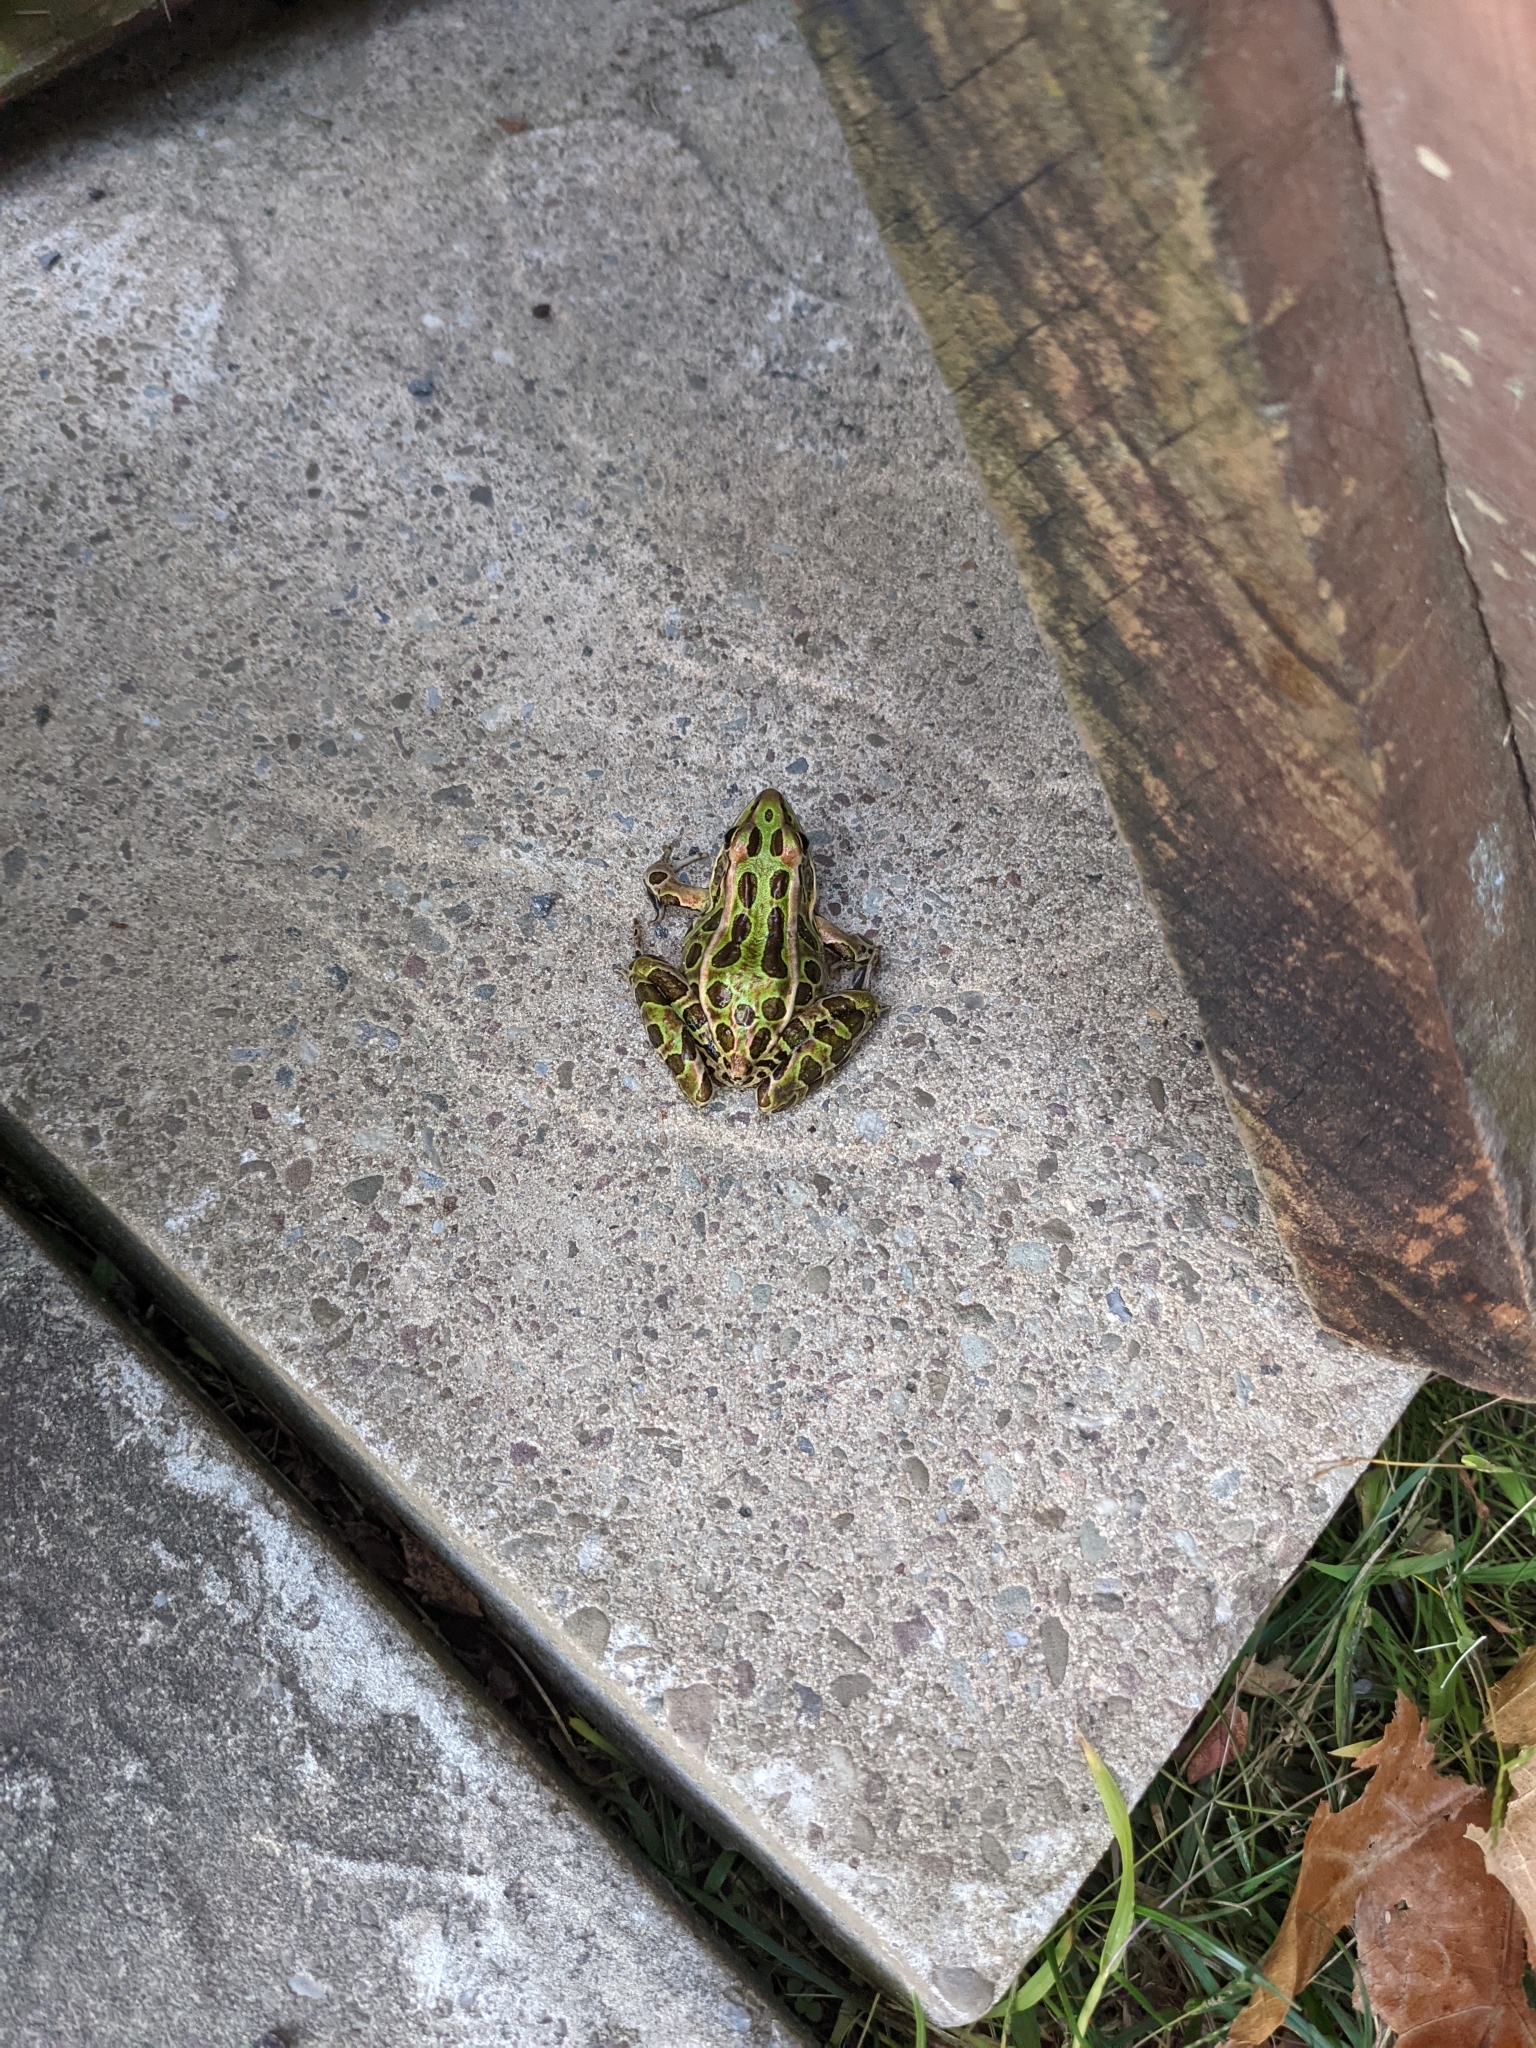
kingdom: Animalia
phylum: Chordata
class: Amphibia
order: Anura
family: Ranidae
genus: Lithobates
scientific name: Lithobates pipiens
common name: Northern leopard frog
